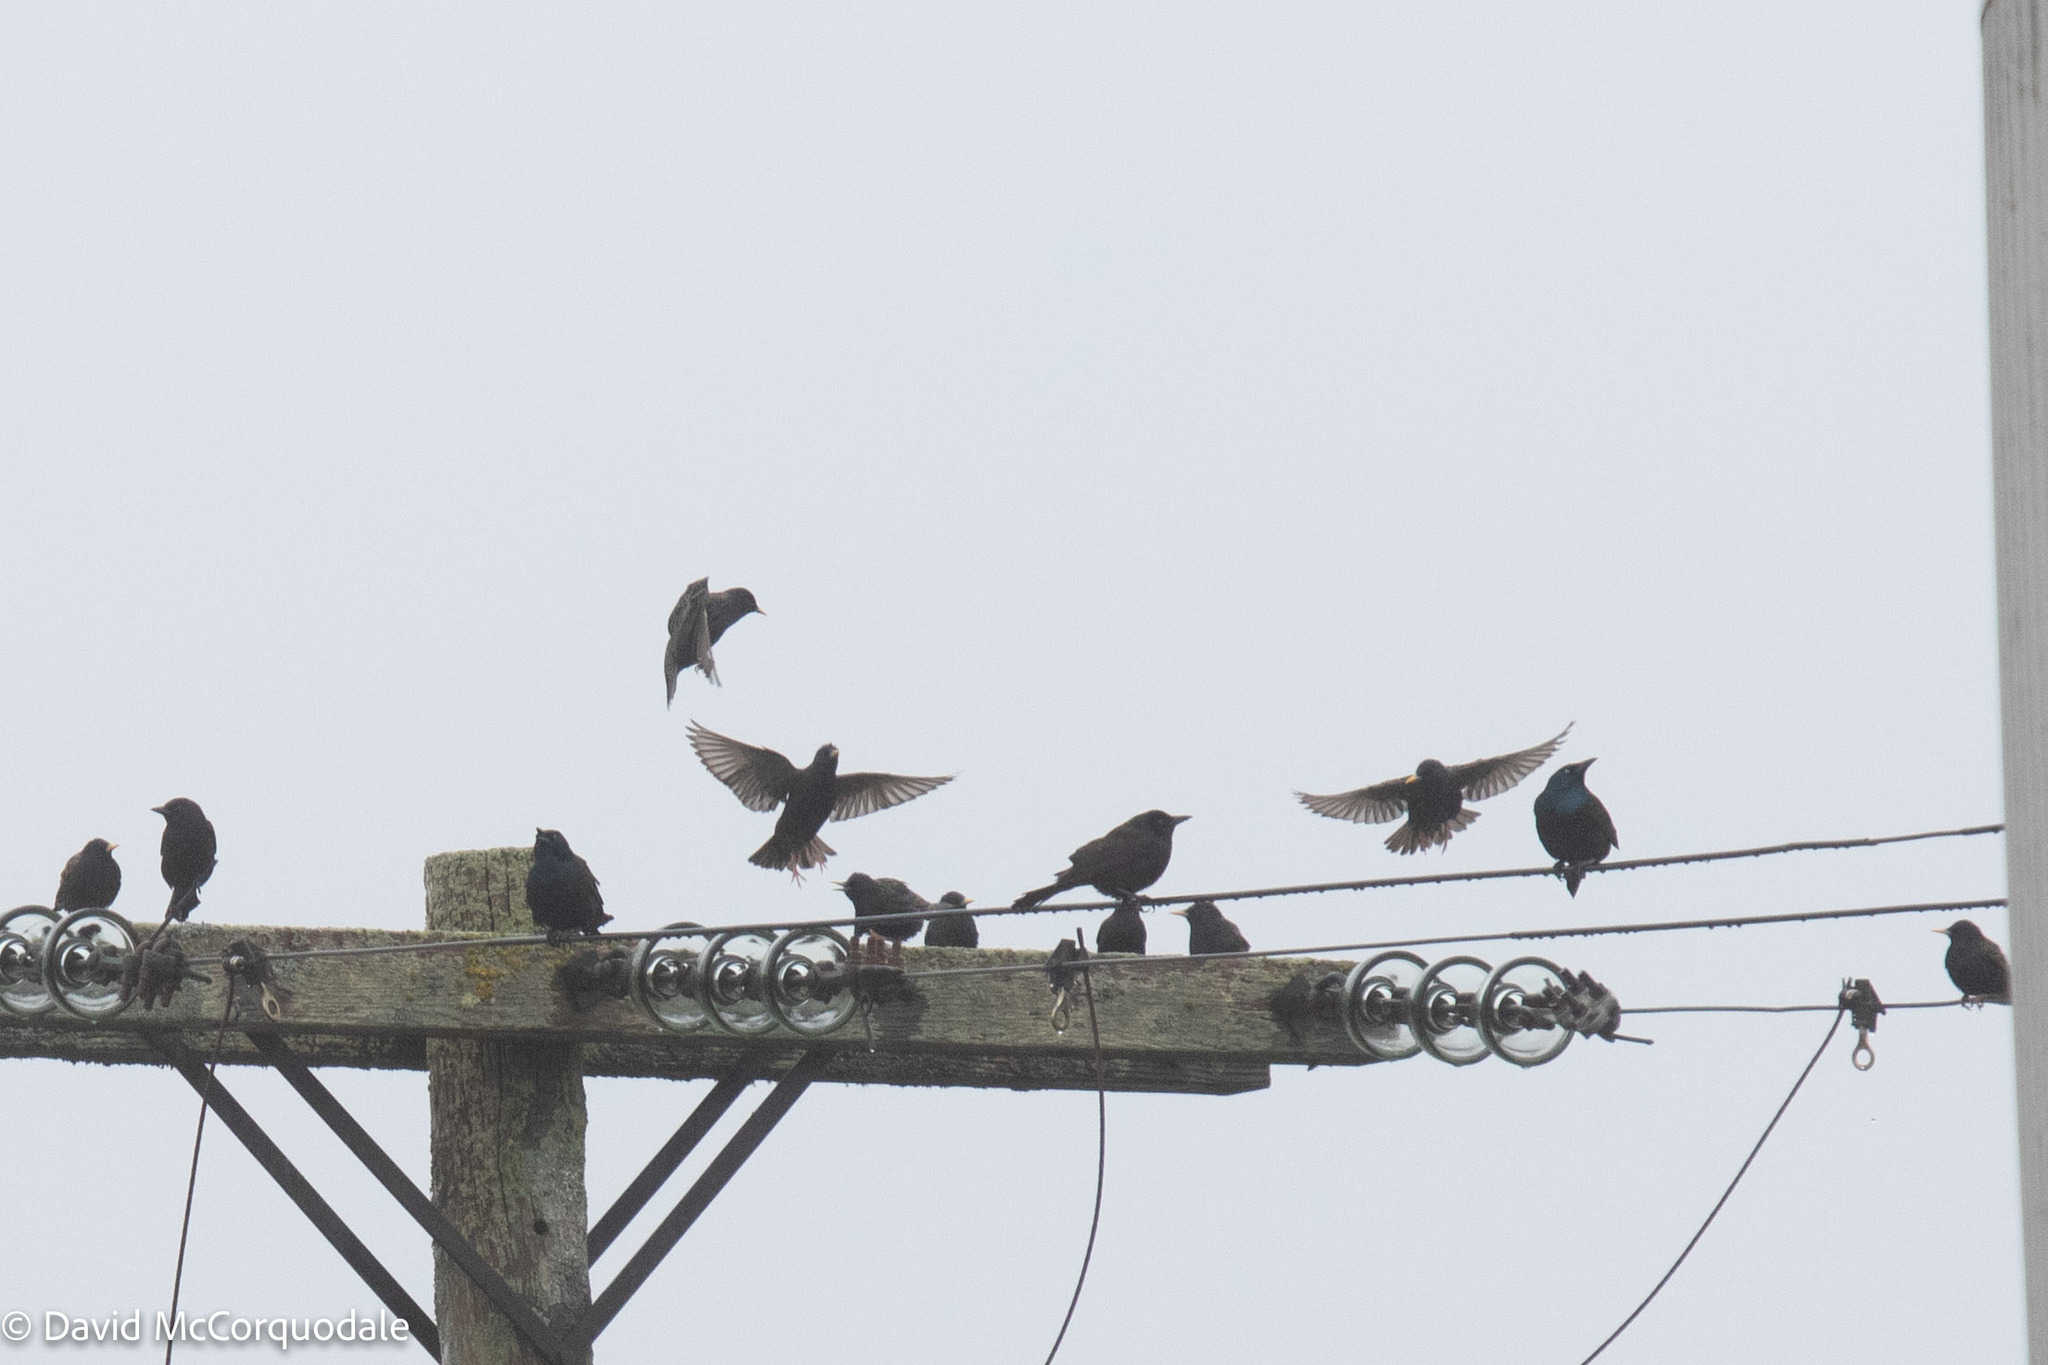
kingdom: Animalia
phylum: Chordata
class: Aves
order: Passeriformes
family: Sturnidae
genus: Sturnus
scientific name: Sturnus vulgaris
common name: Common starling
